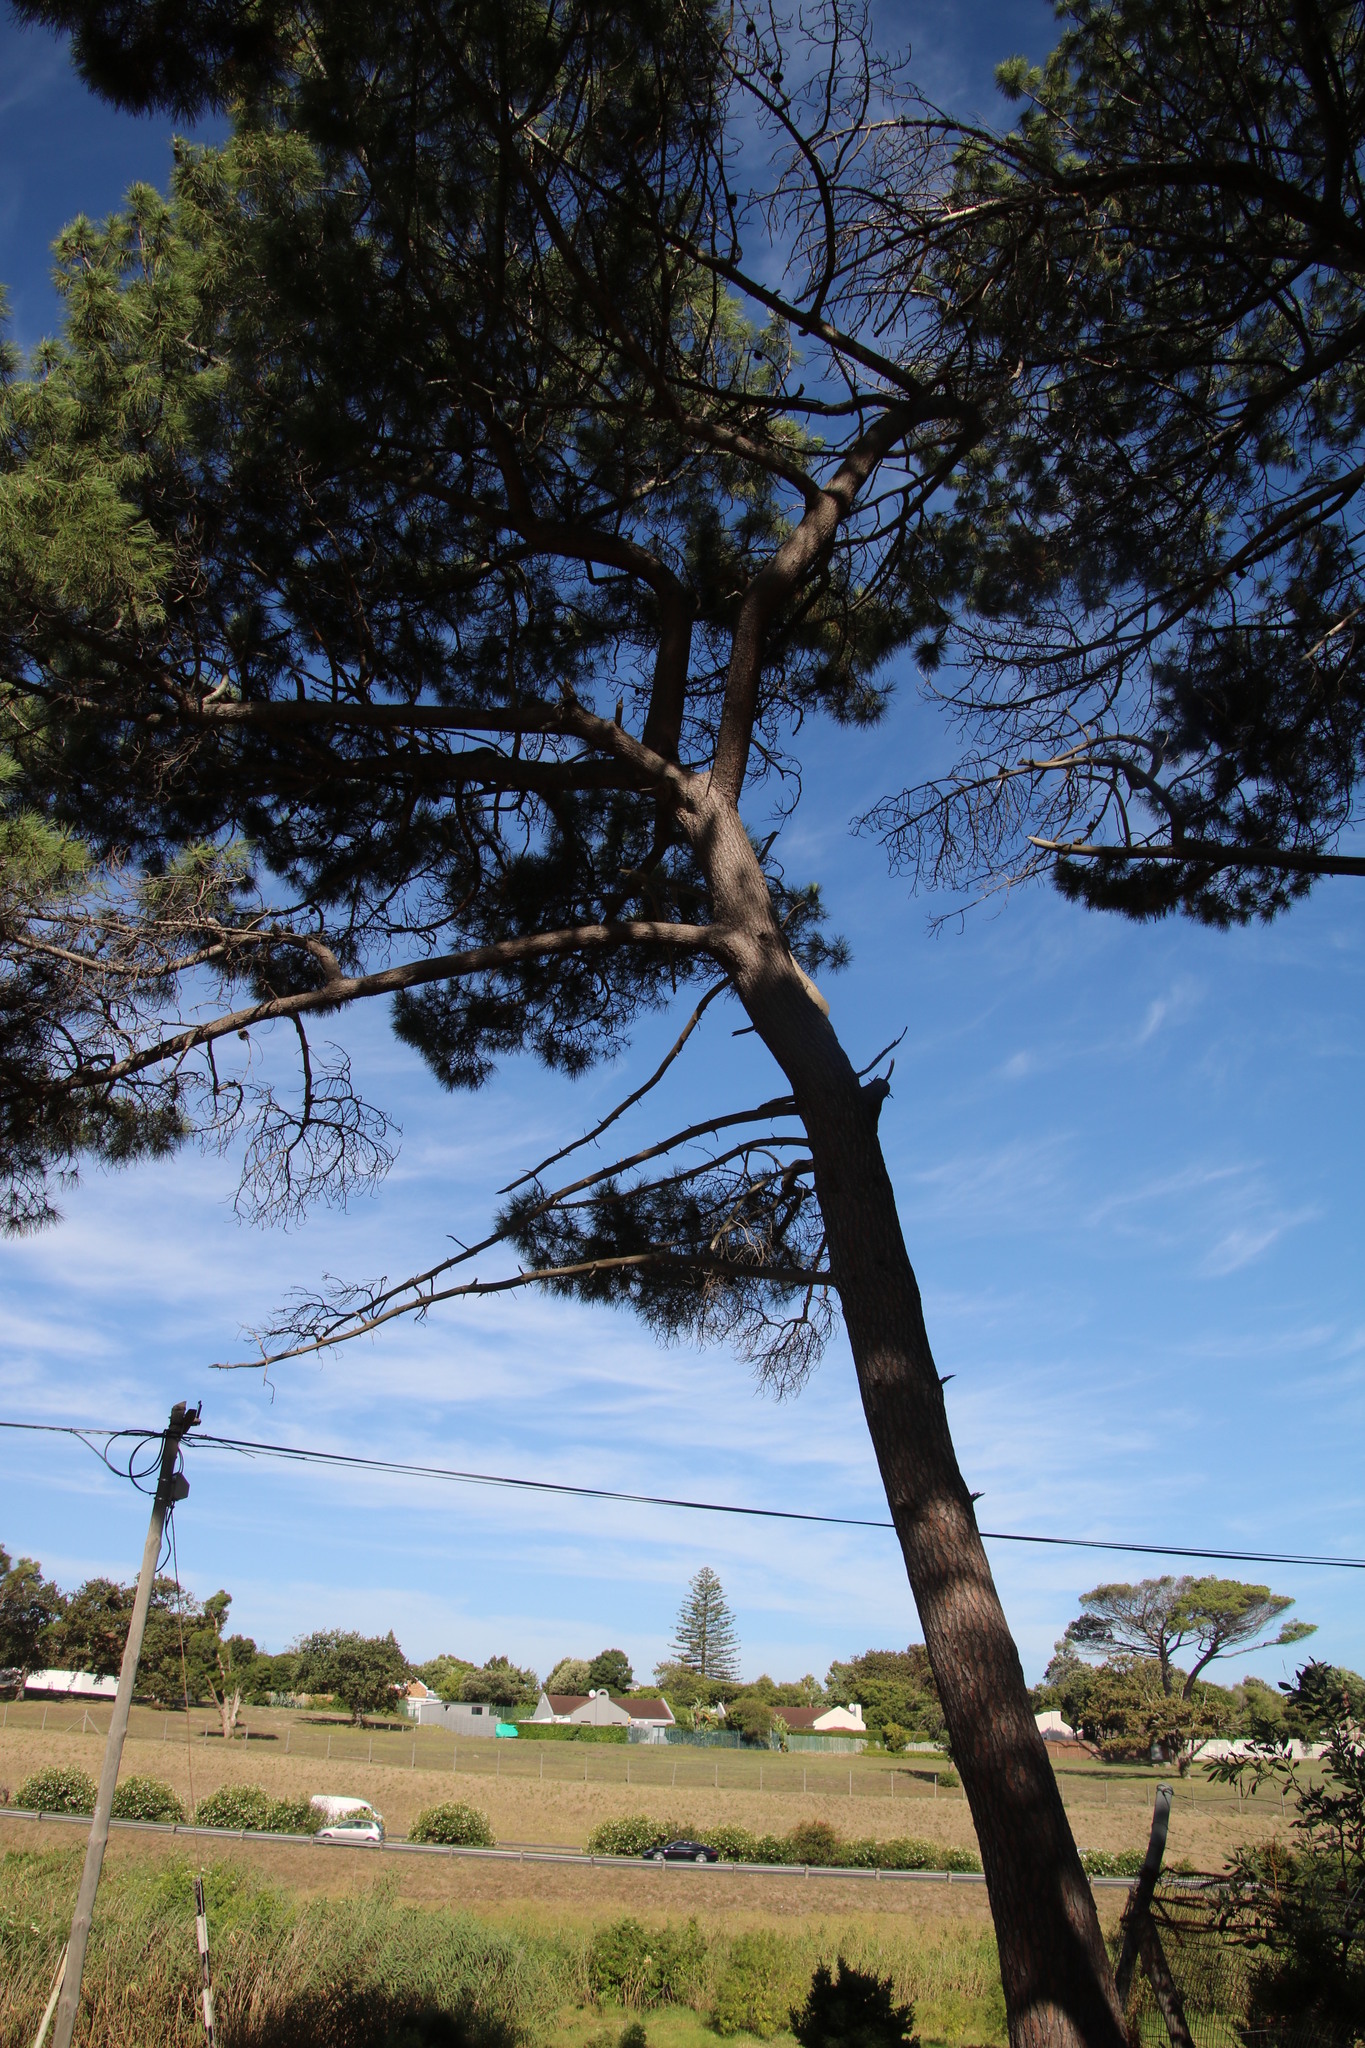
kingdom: Plantae
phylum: Tracheophyta
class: Pinopsida
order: Pinales
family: Pinaceae
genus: Pinus
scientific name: Pinus pinaster
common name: Maritime pine
